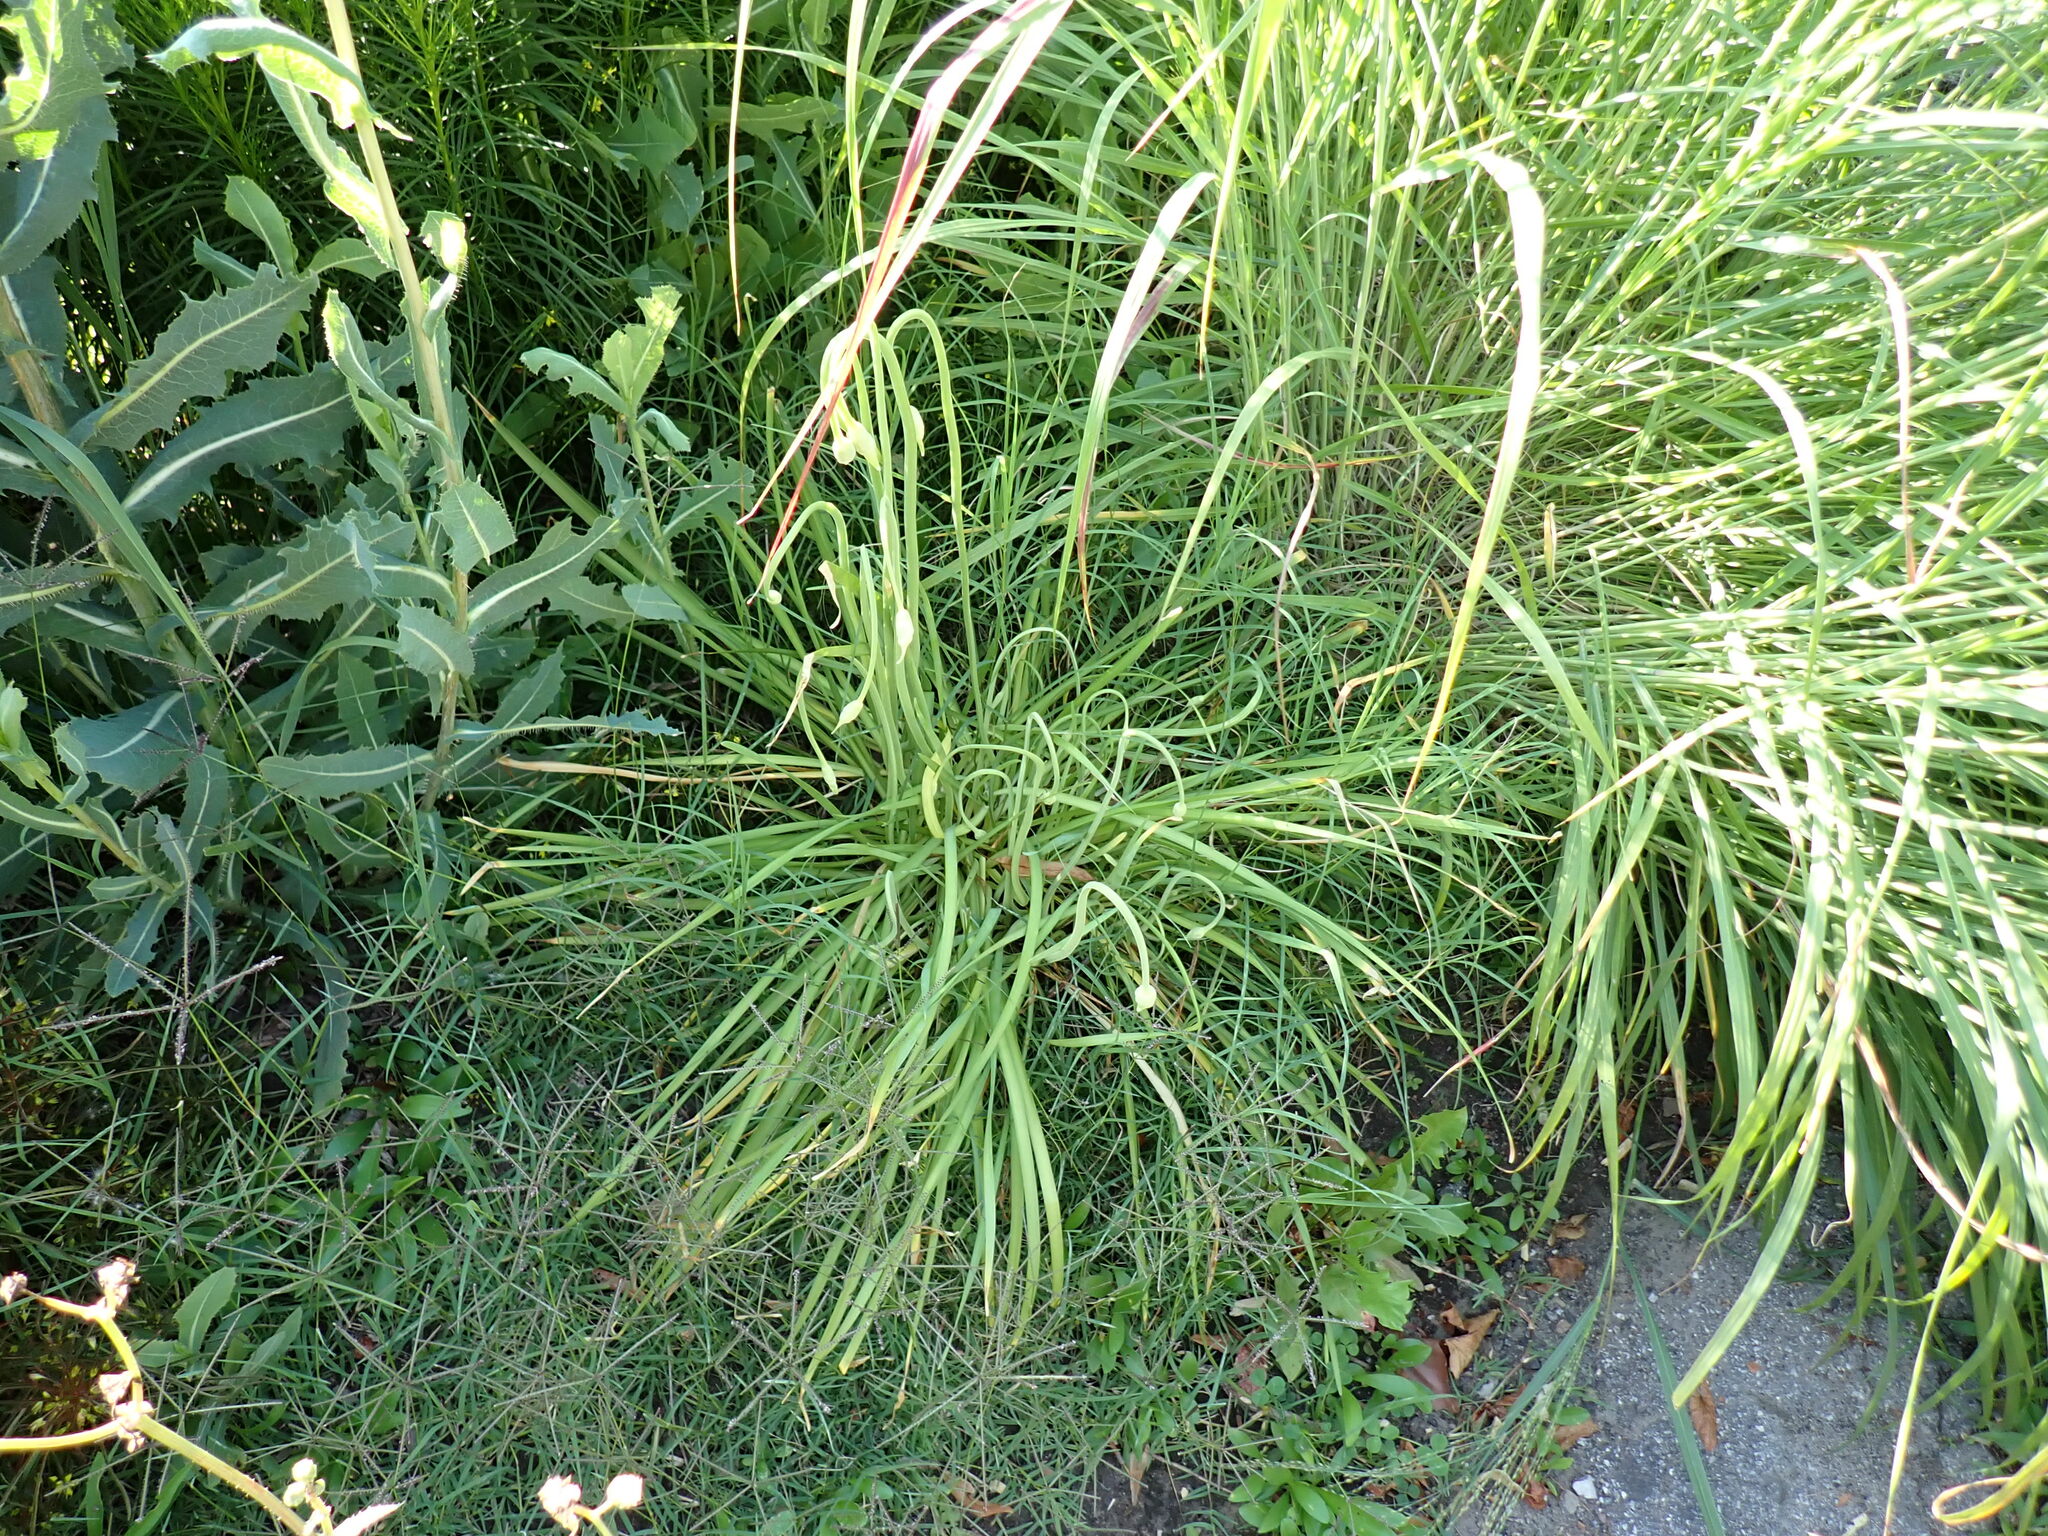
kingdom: Plantae
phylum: Tracheophyta
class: Liliopsida
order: Asparagales
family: Amaryllidaceae
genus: Allium
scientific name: Allium cernuum
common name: Nodding onion
